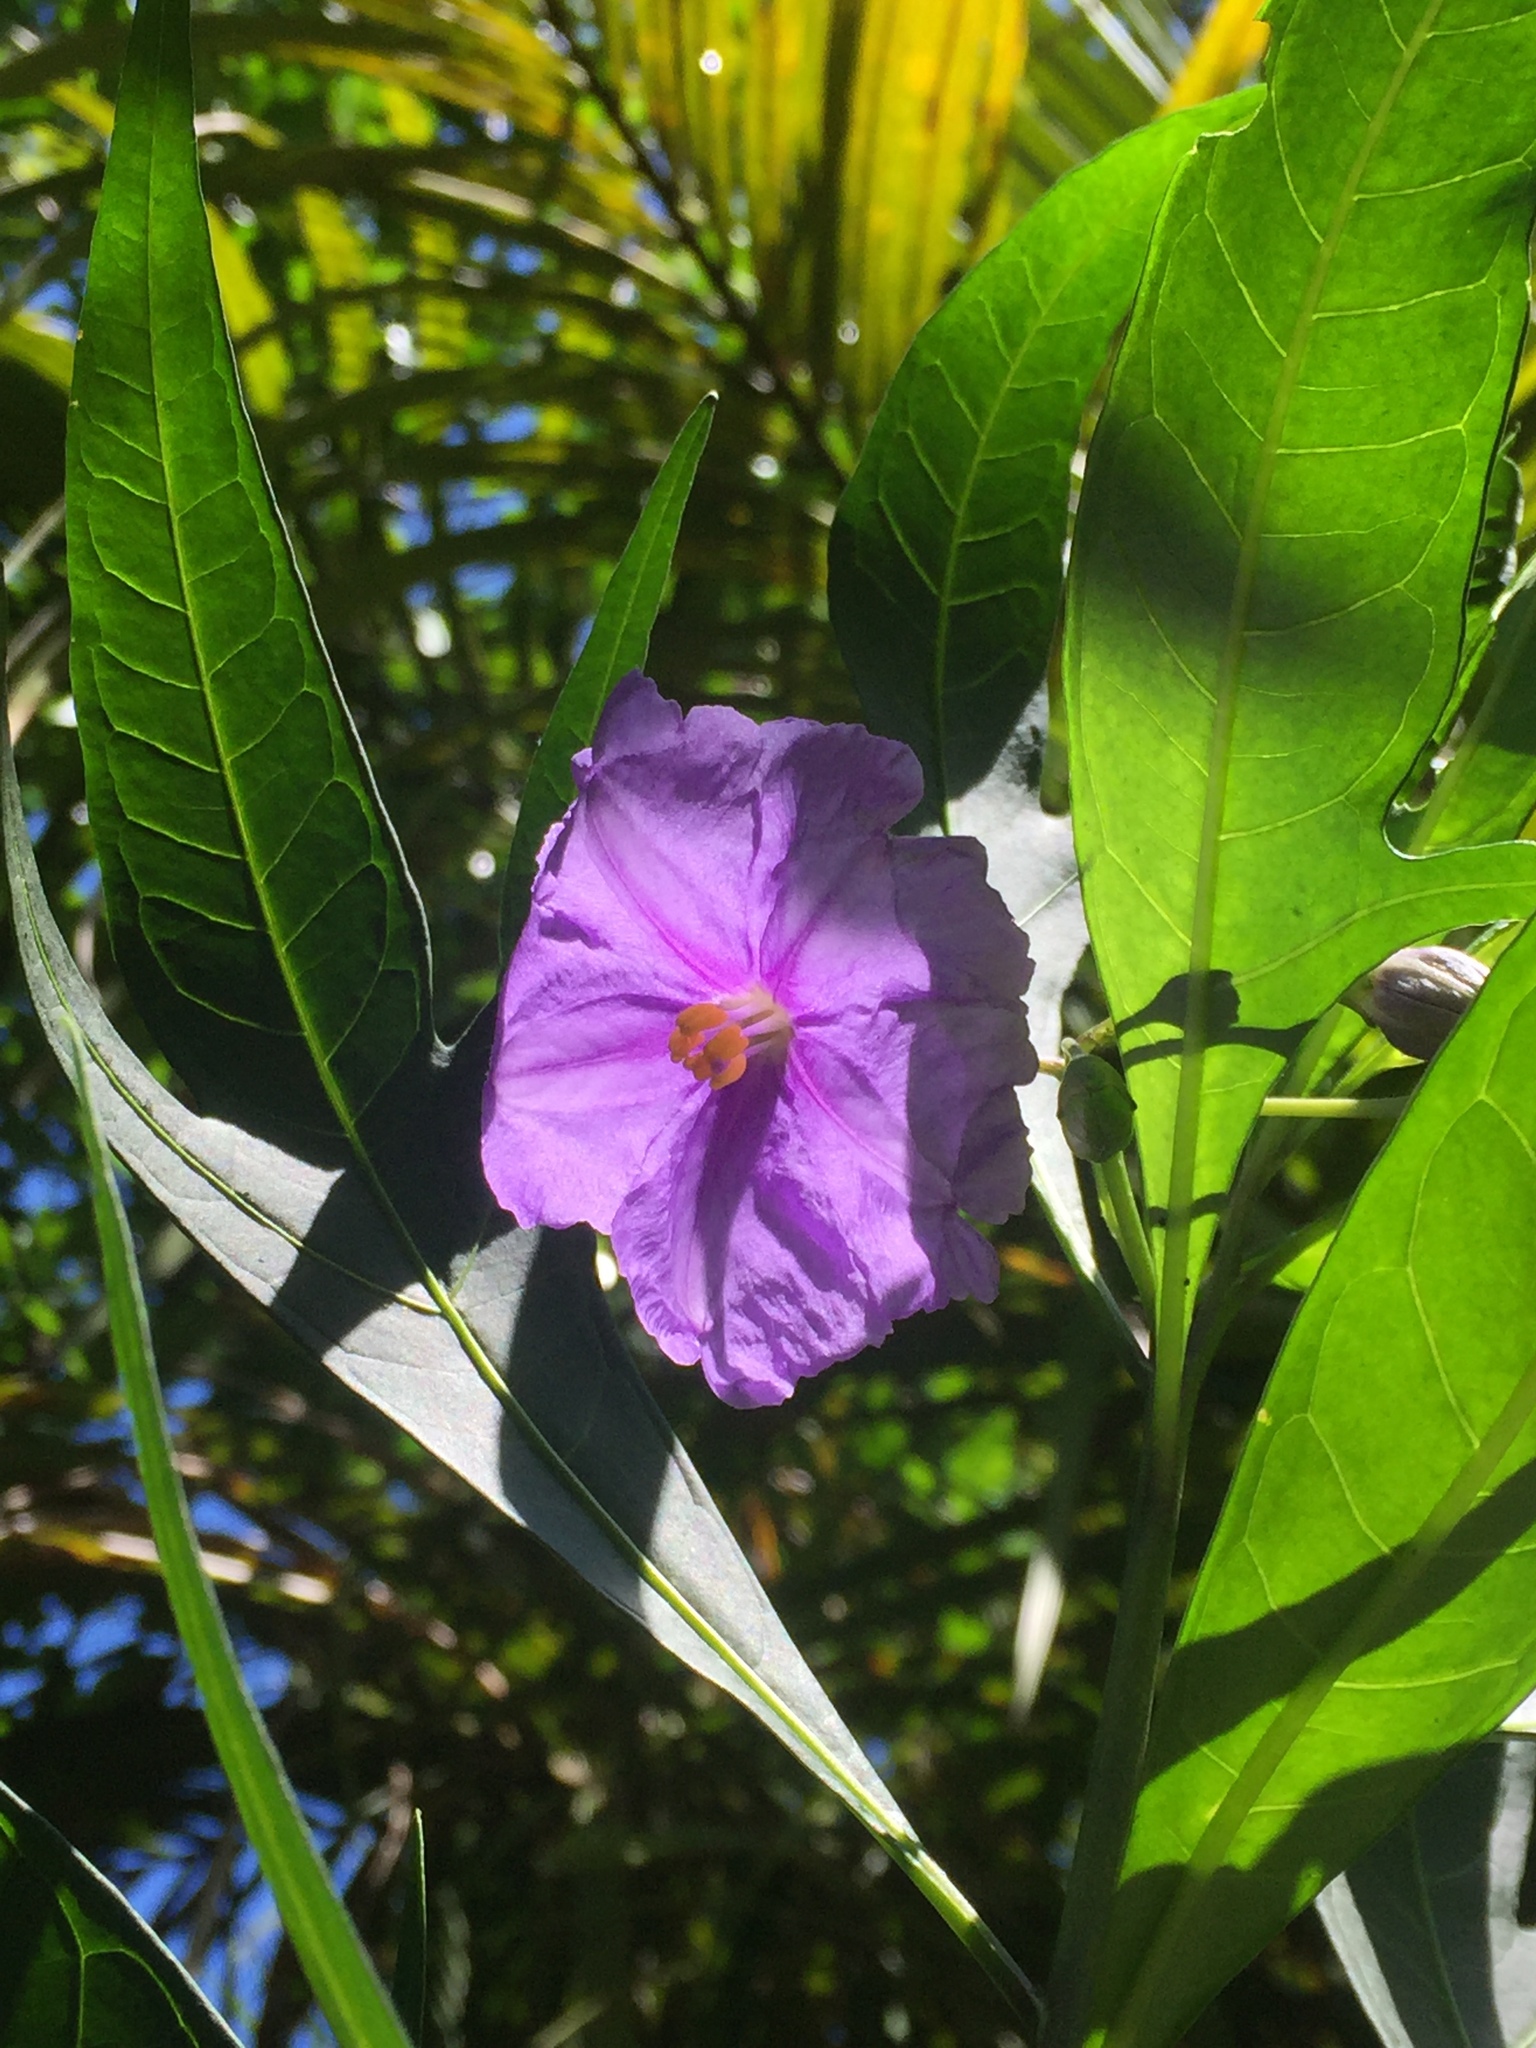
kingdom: Plantae
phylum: Tracheophyta
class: Magnoliopsida
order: Solanales
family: Solanaceae
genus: Solanum
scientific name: Solanum laciniatum
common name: Kangaroo-apple
